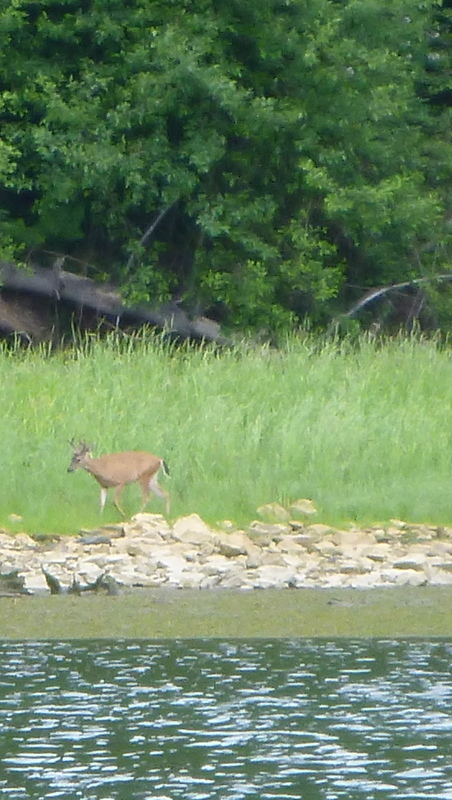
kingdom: Animalia
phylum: Chordata
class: Mammalia
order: Artiodactyla
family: Cervidae
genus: Odocoileus
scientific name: Odocoileus hemionus
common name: Mule deer
